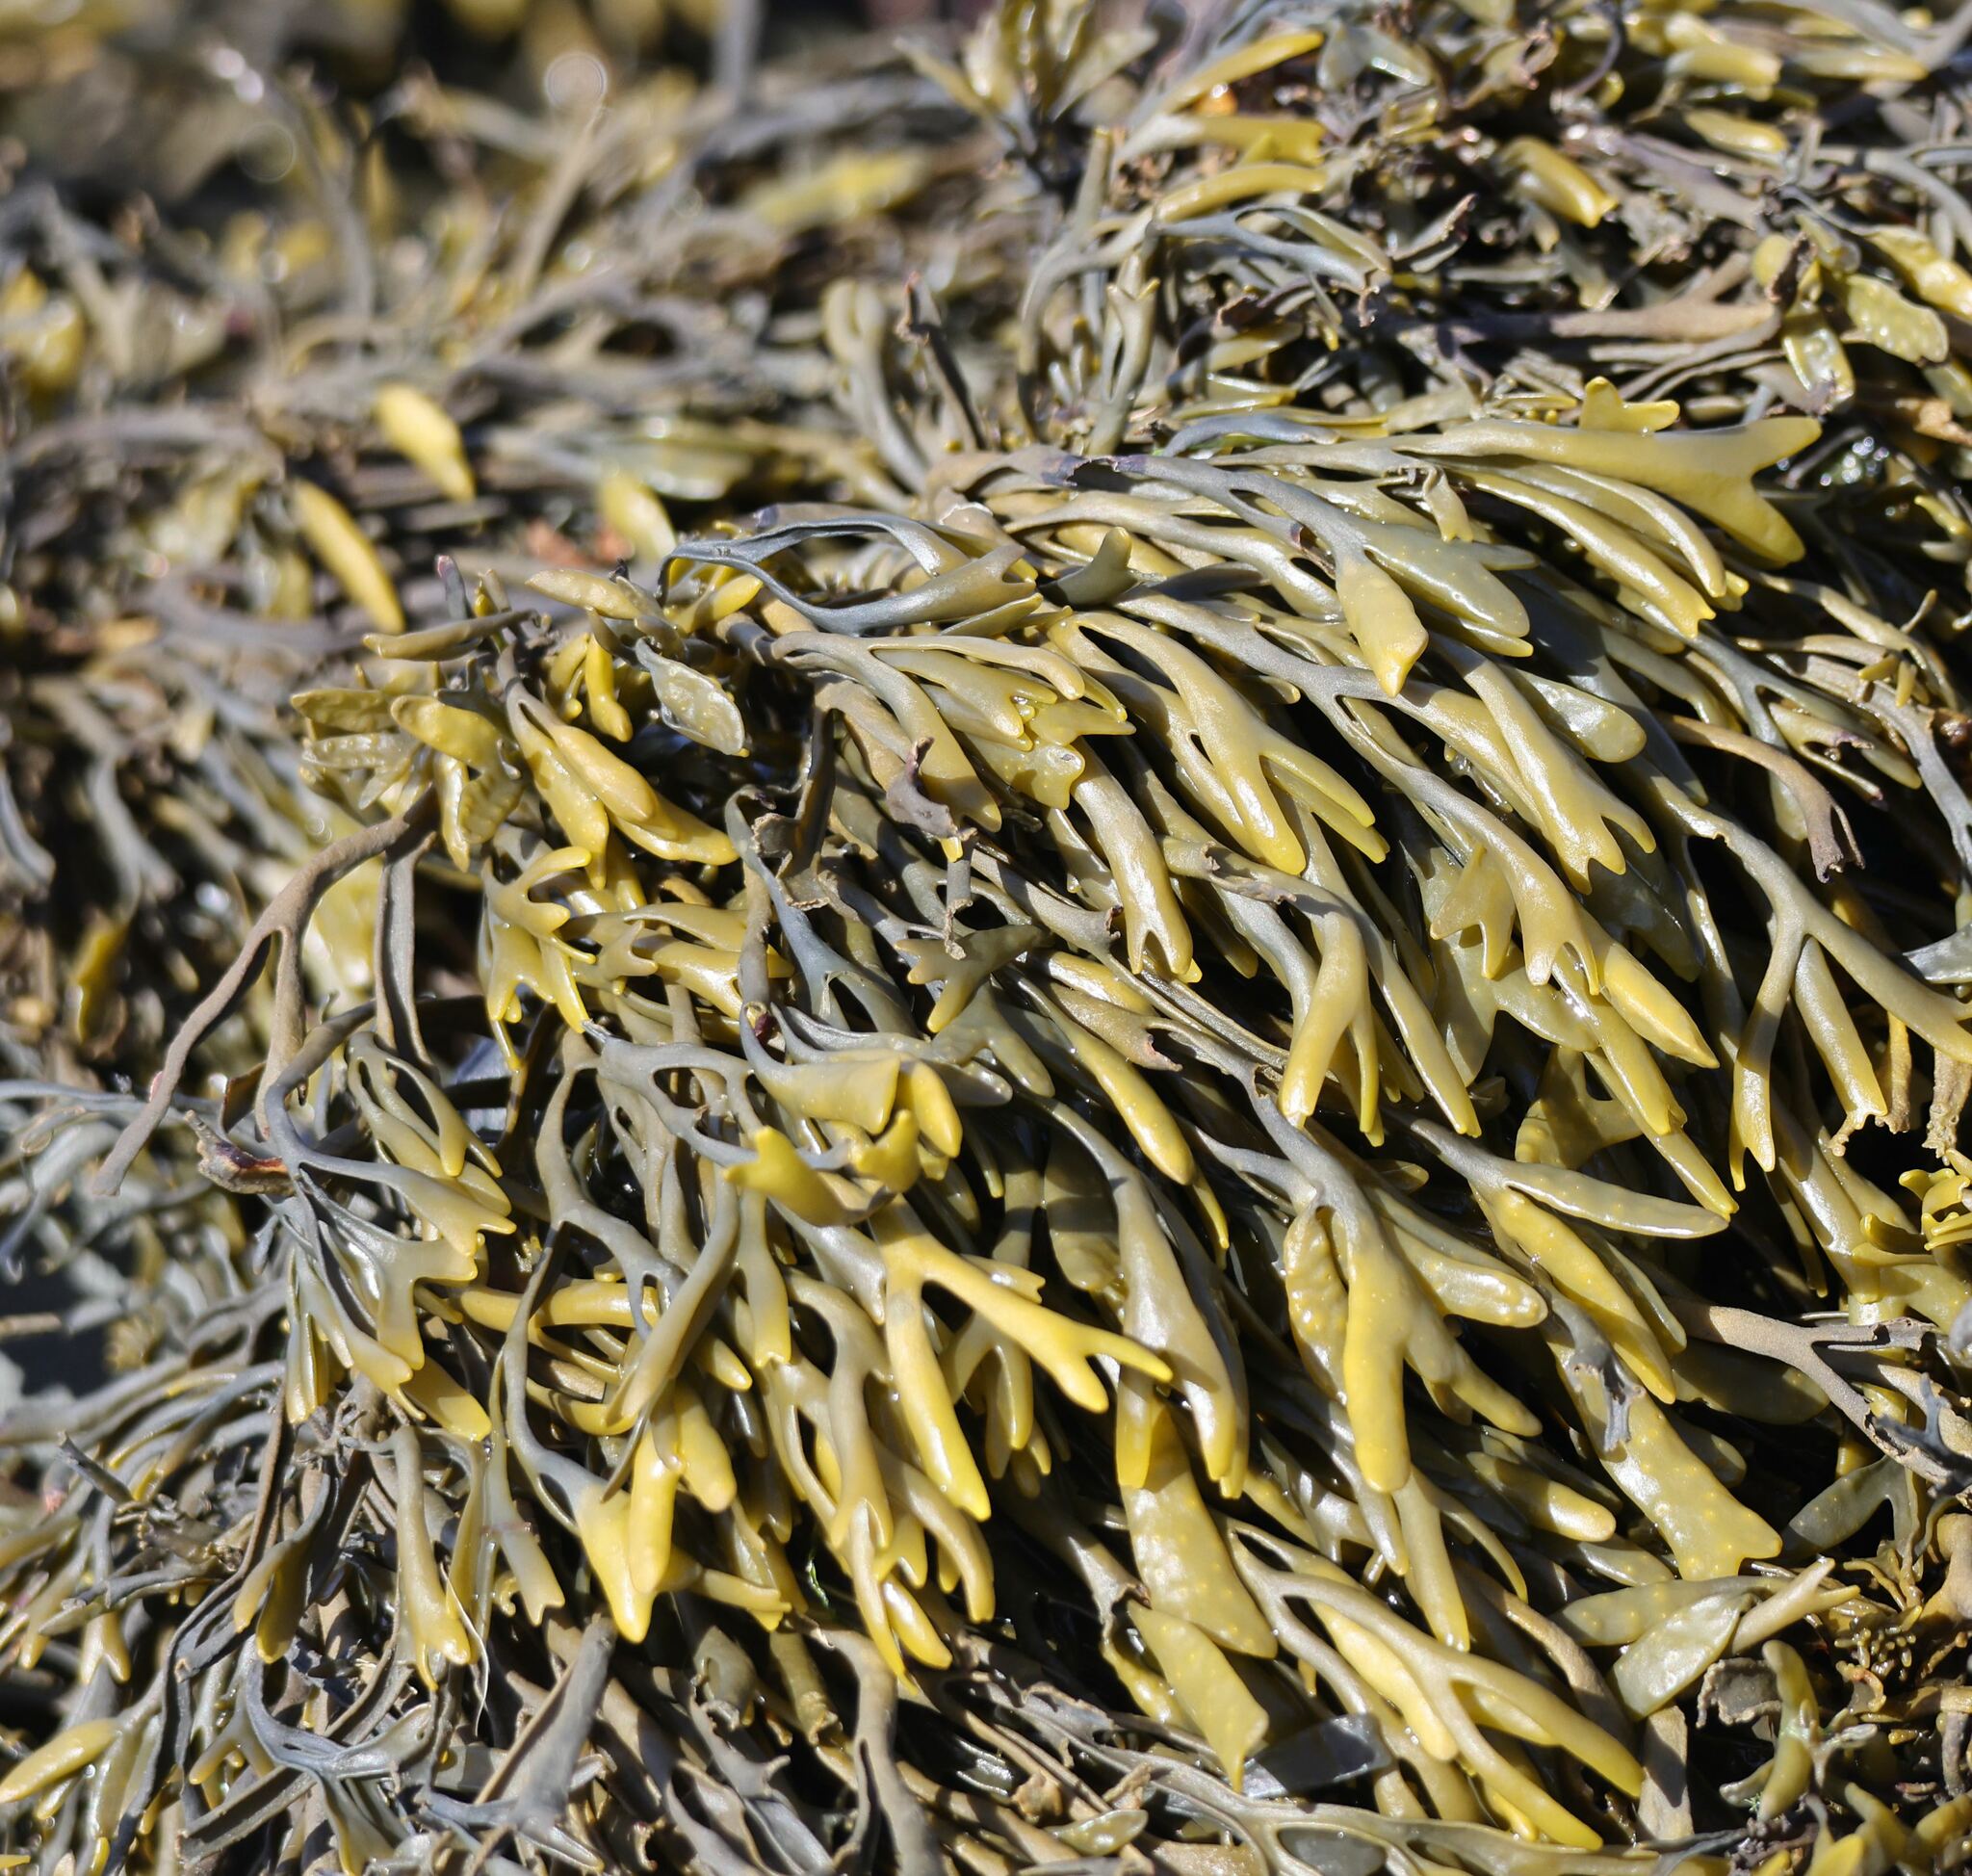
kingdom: Chromista
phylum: Ochrophyta
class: Phaeophyceae
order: Fucales
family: Fucaceae
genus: Pelvetia
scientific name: Pelvetia canaliculata
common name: Channelled wrack
